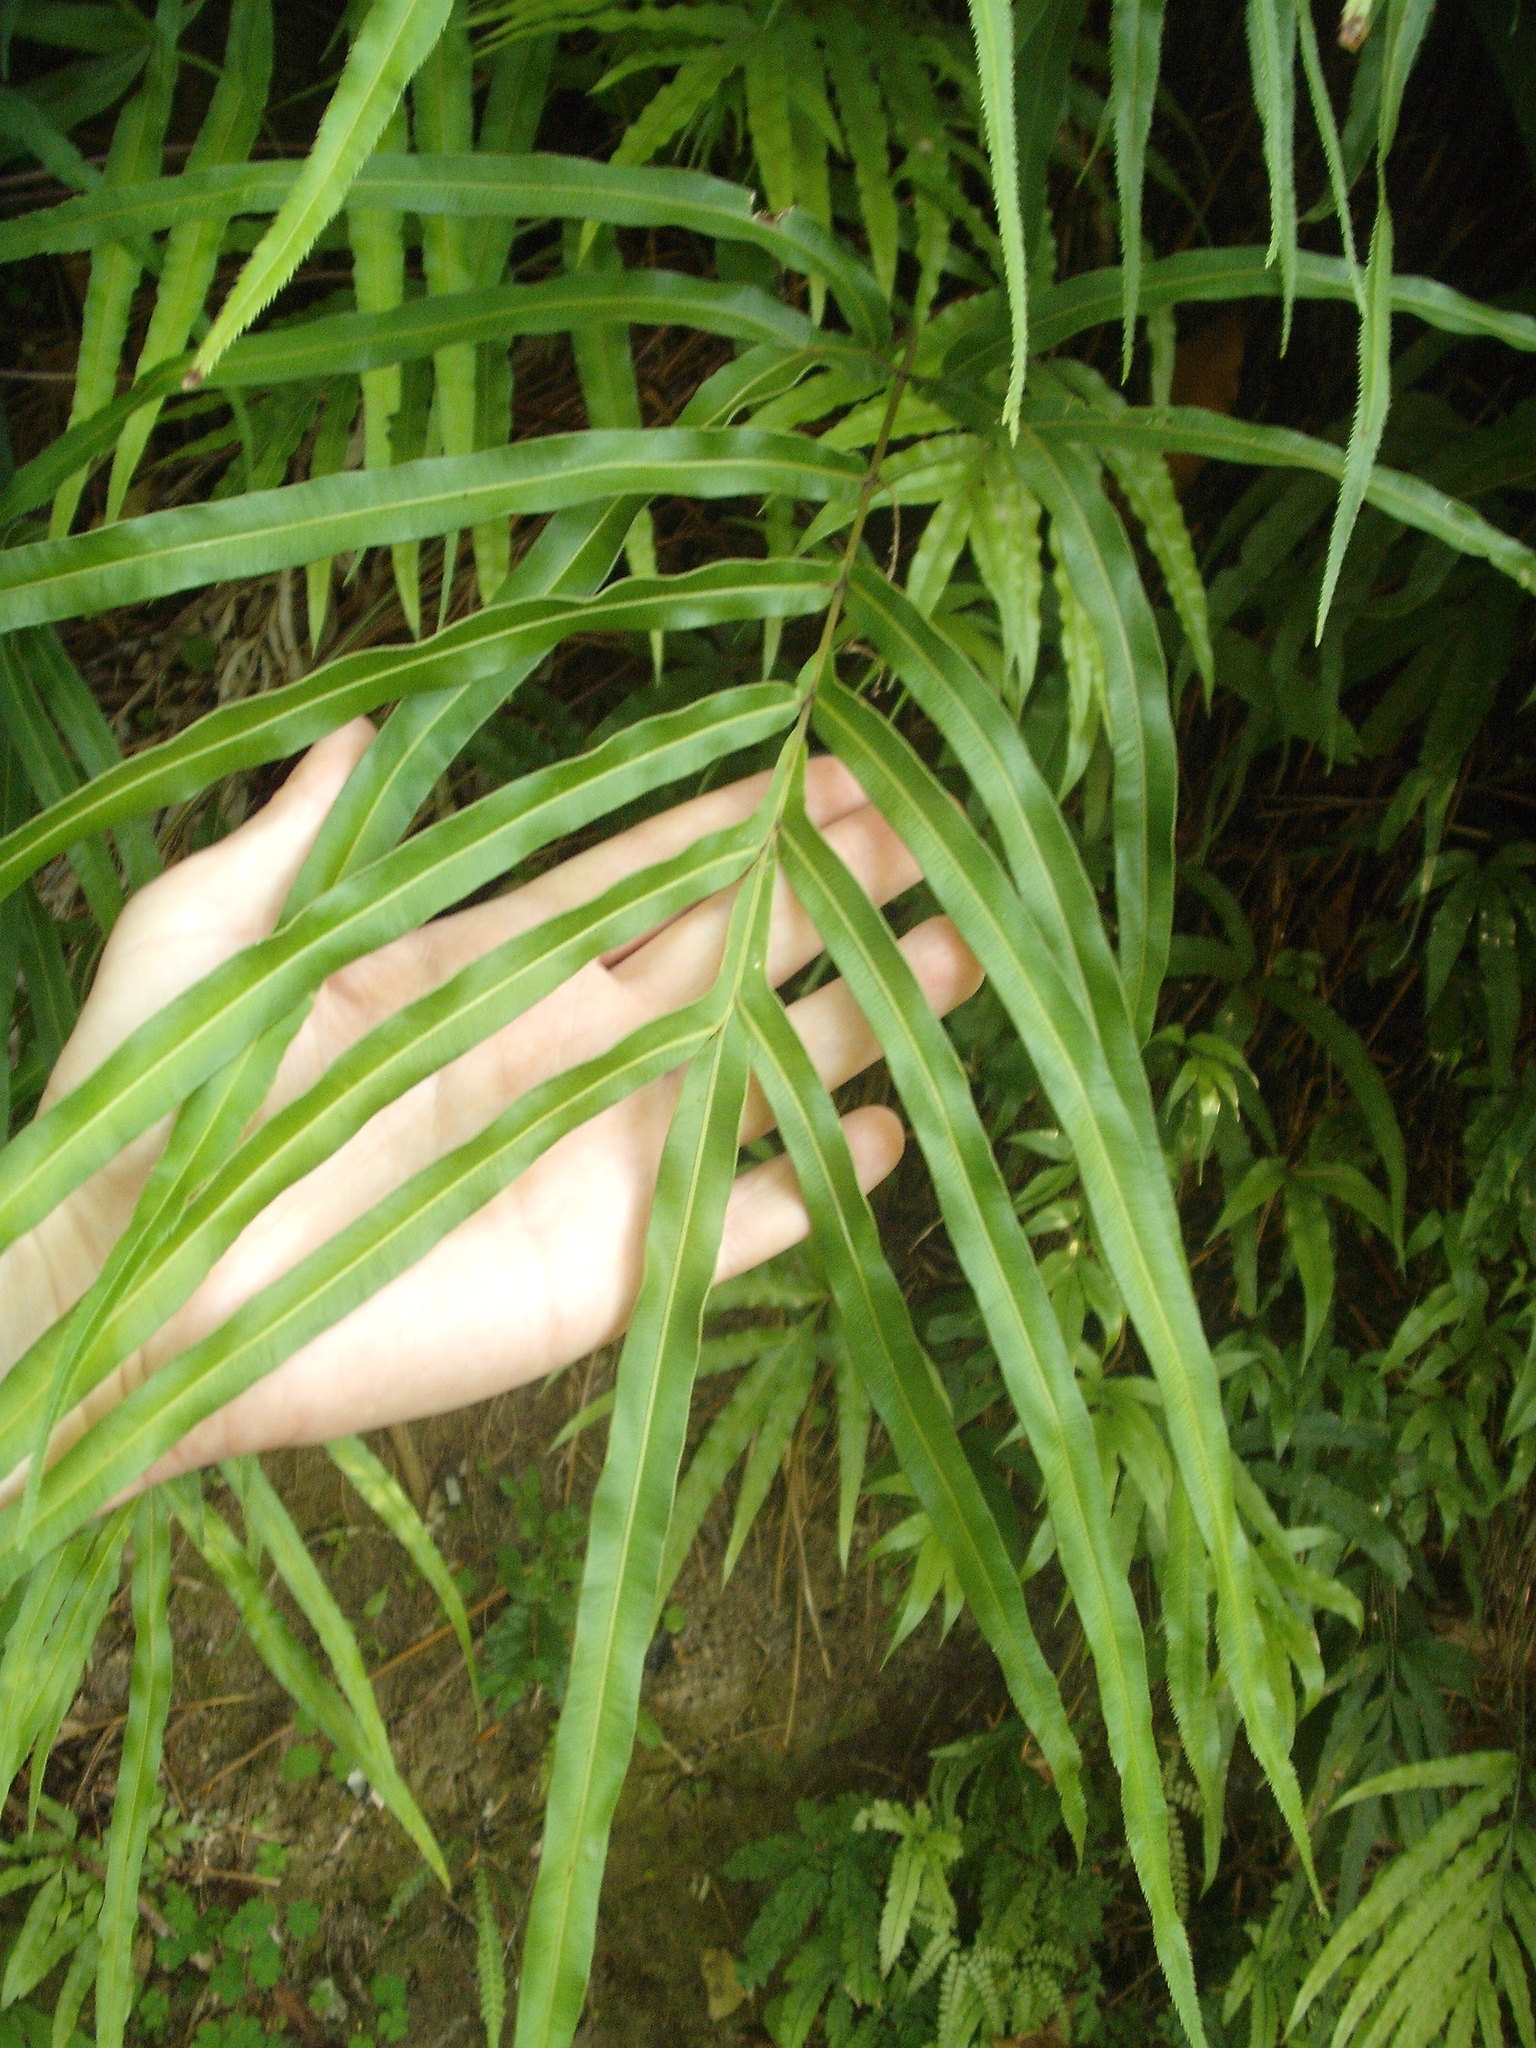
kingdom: Plantae
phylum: Tracheophyta
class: Polypodiopsida
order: Polypodiales
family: Pteridaceae
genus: Pteris
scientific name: Pteris cretica
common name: Ribbon fern
